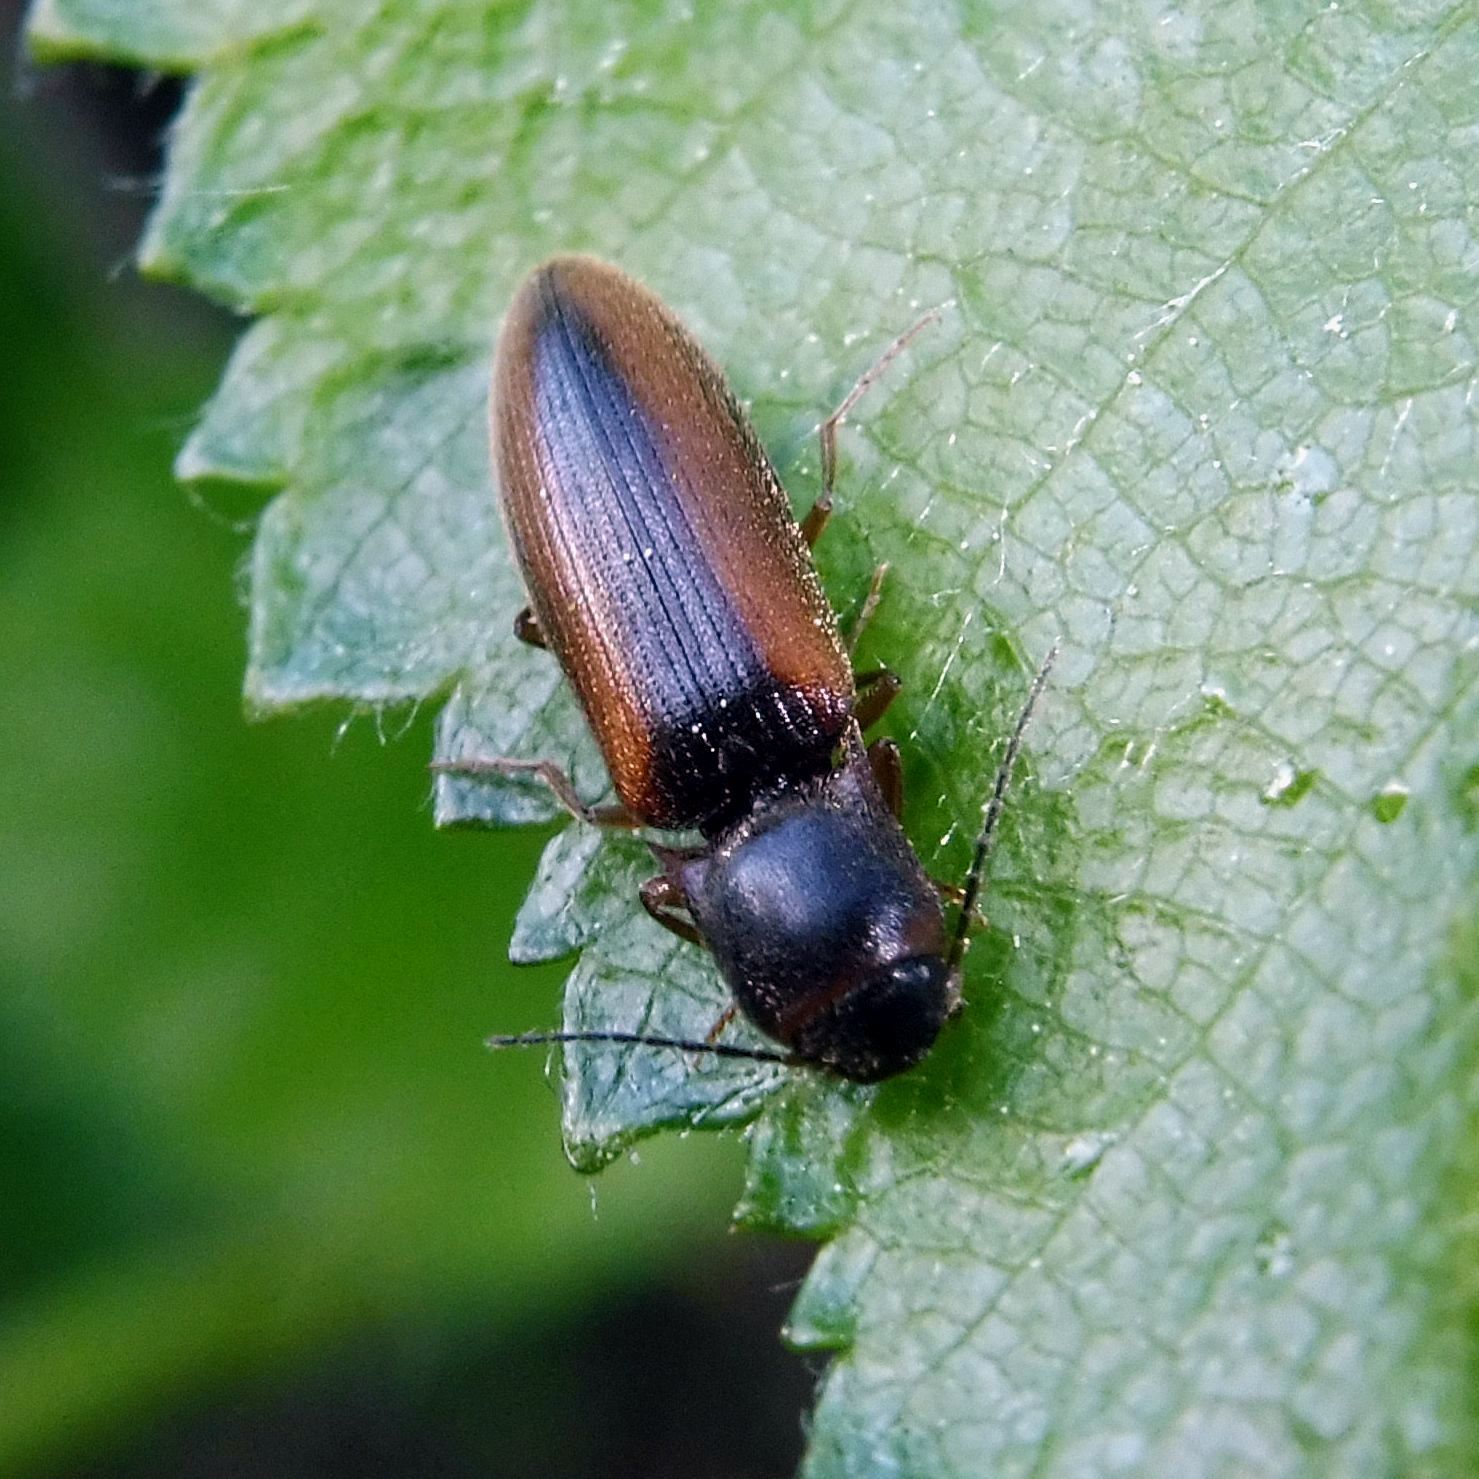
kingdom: Animalia
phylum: Arthropoda
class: Insecta
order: Coleoptera
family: Elateridae
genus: Dalopius
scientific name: Dalopius marginatus
